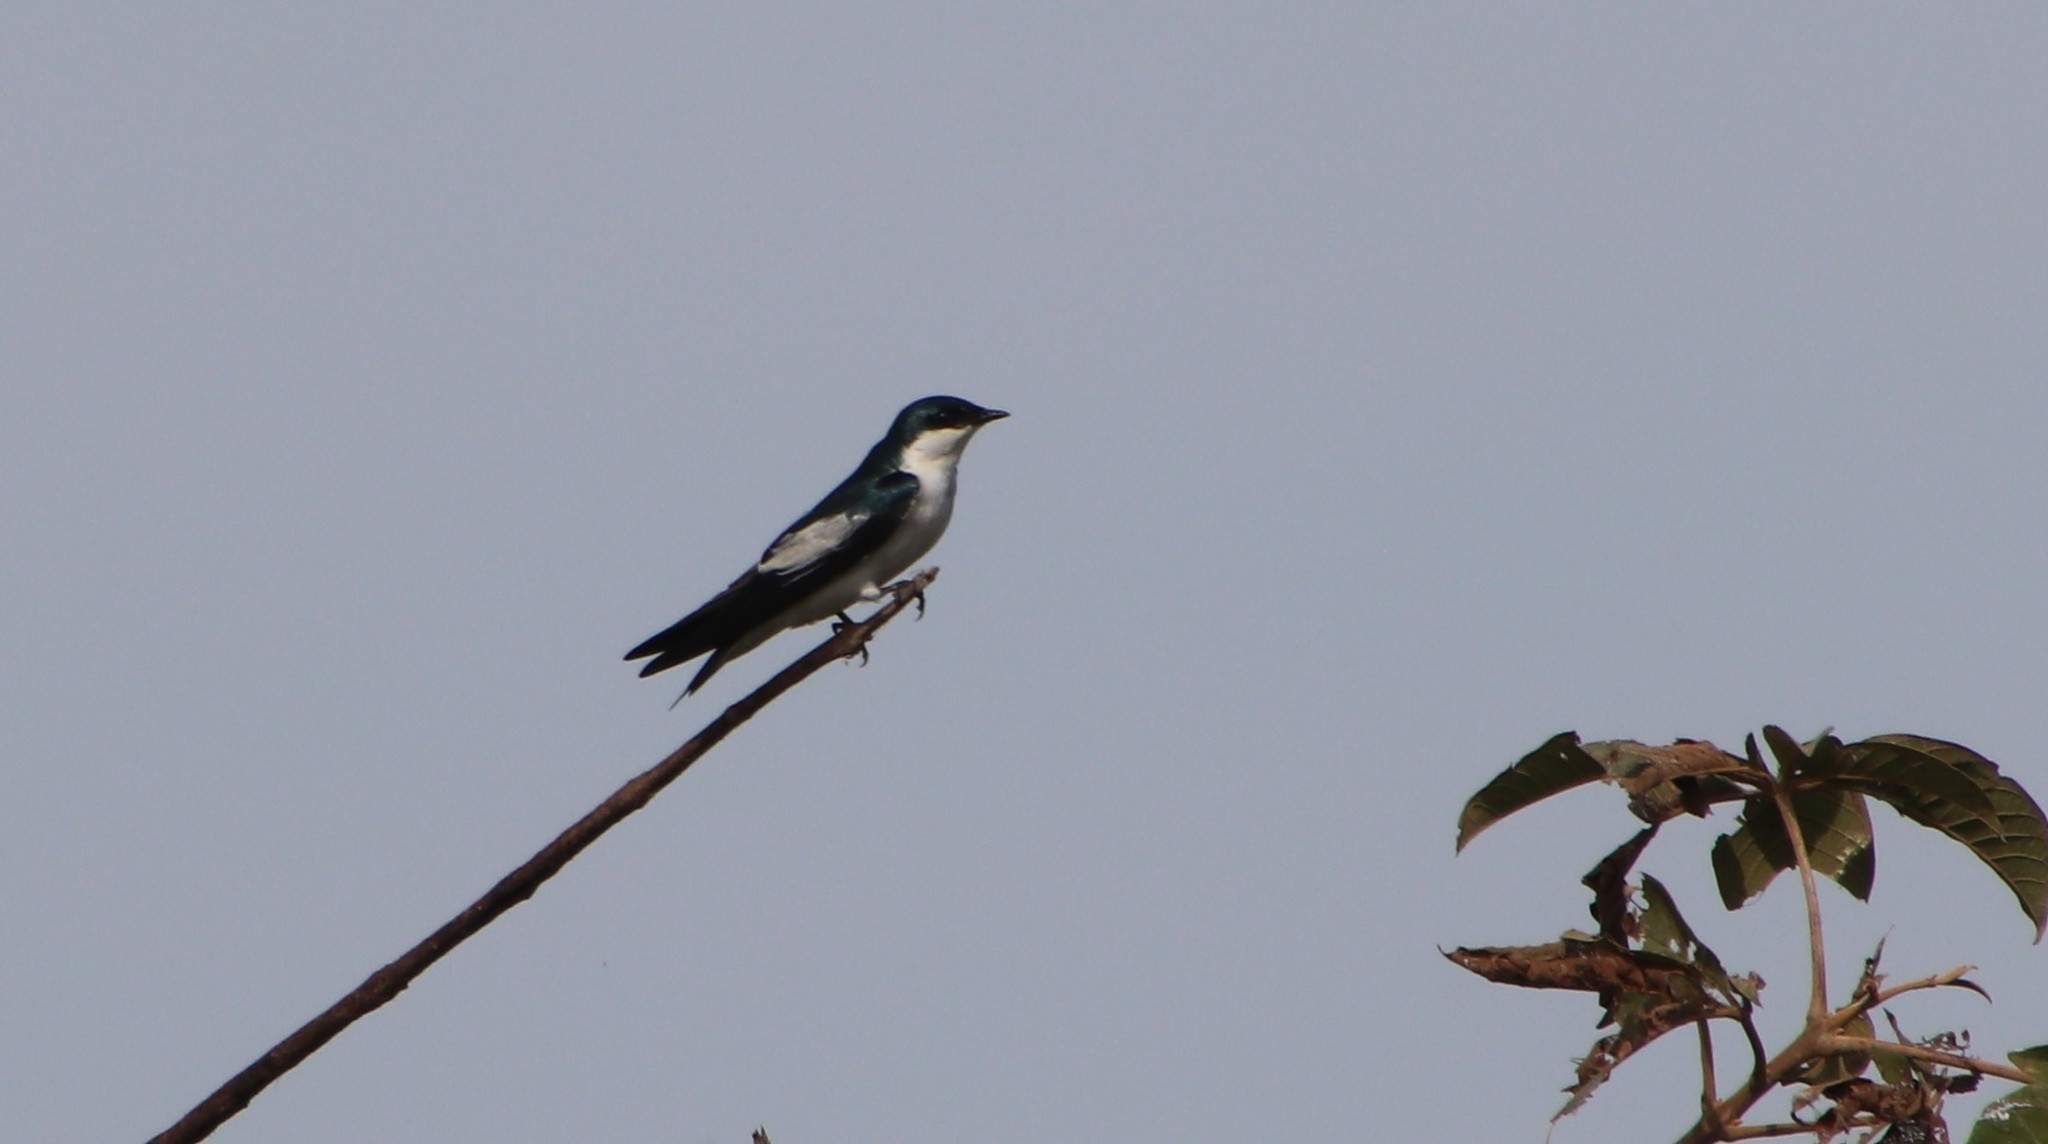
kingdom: Animalia
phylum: Chordata
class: Aves
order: Passeriformes
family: Hirundinidae
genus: Tachycineta
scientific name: Tachycineta albiventer
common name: White-winged swallow
